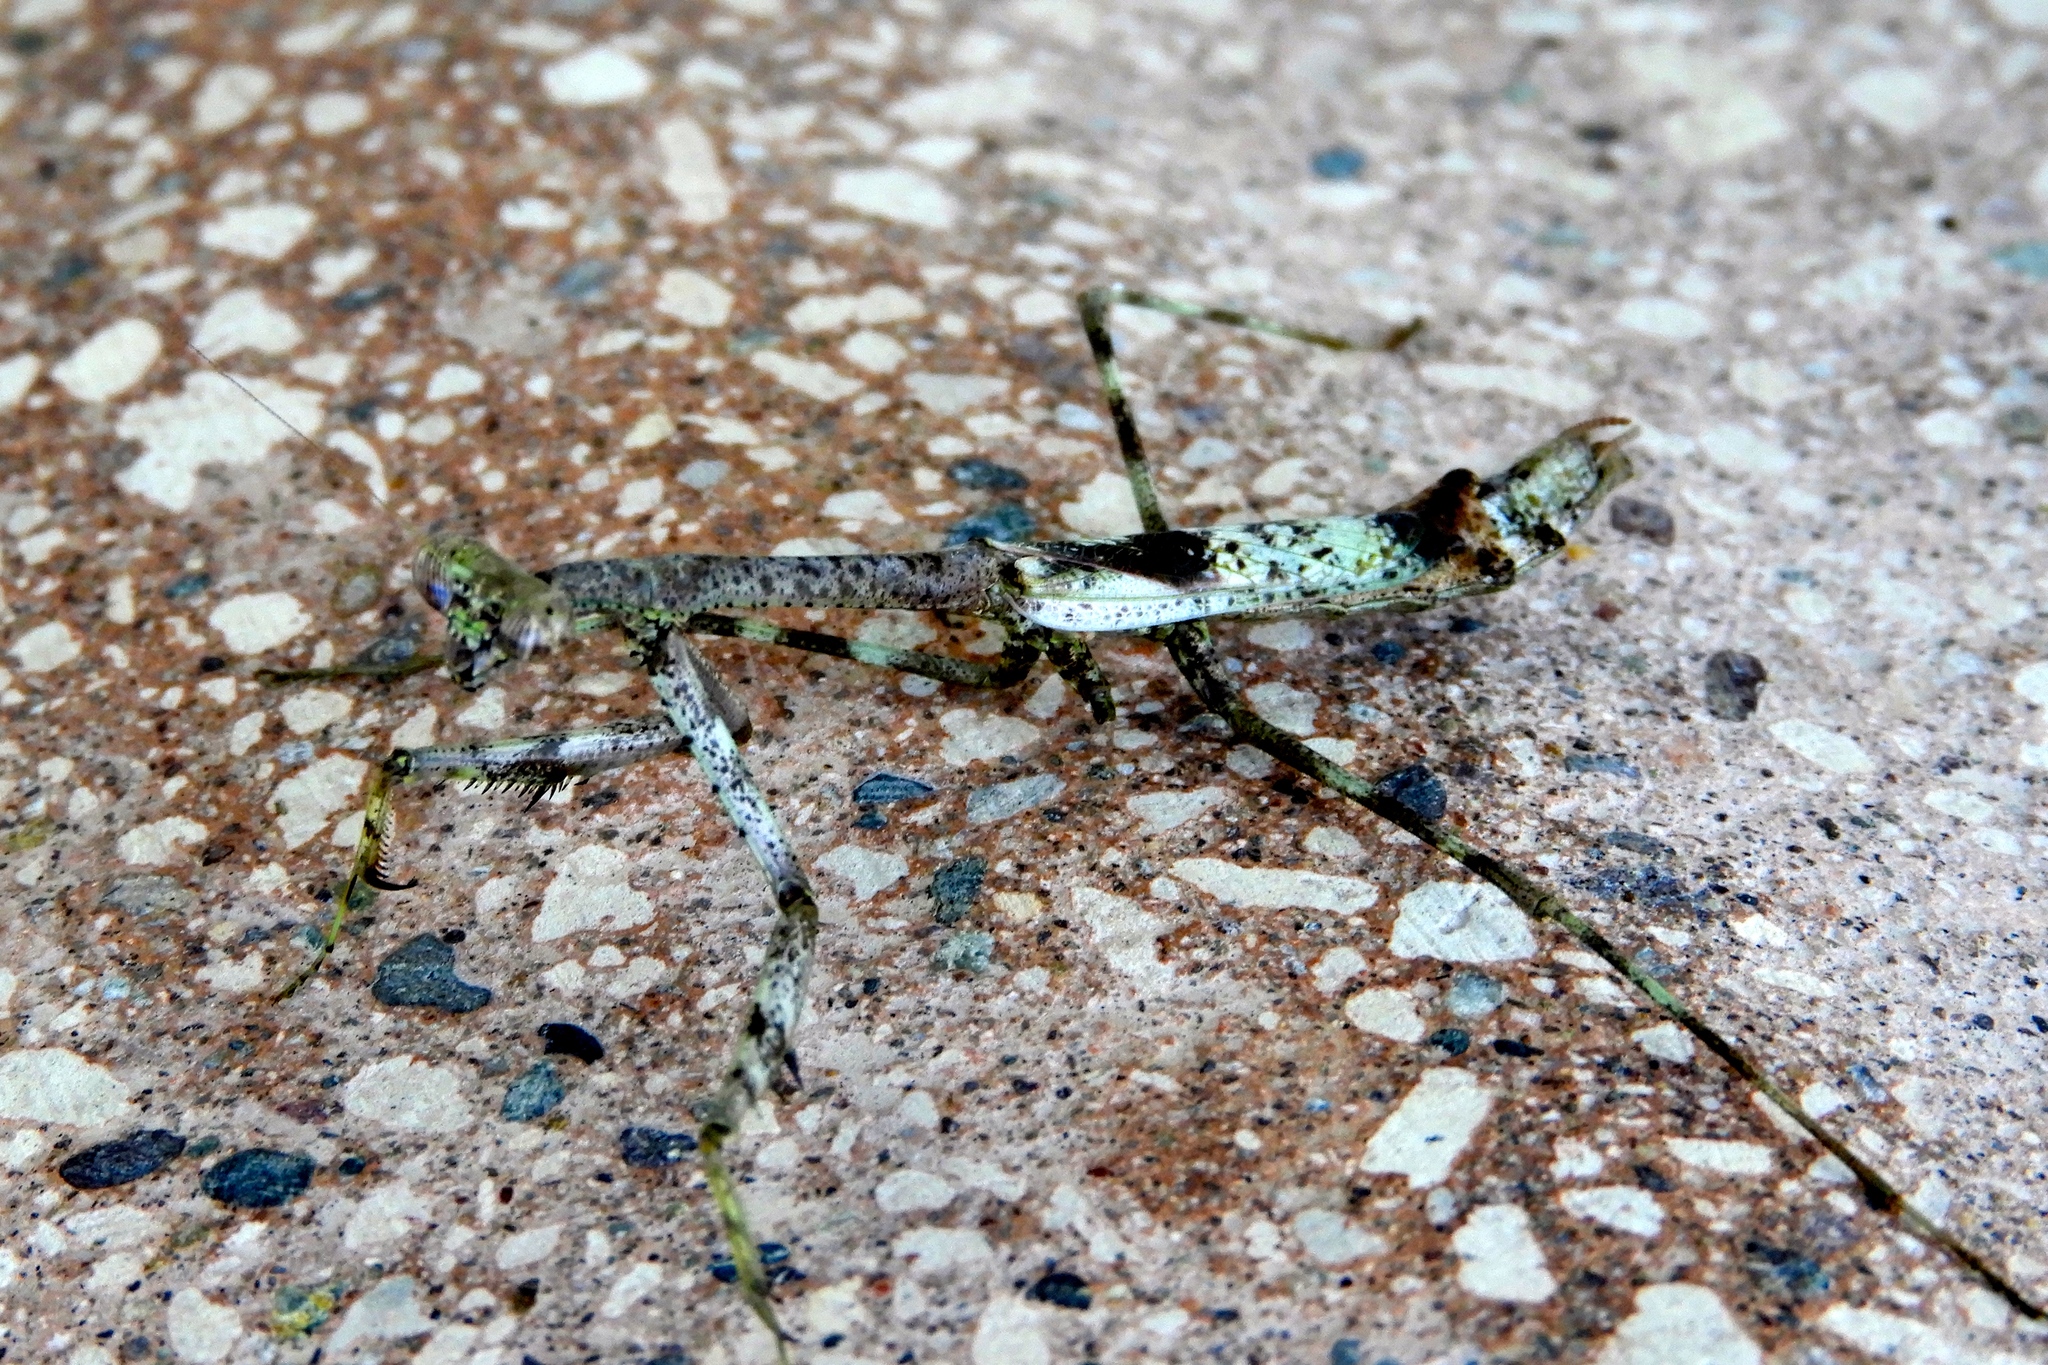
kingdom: Animalia
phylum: Arthropoda
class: Insecta
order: Mantodea
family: Mantidae
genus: Stagmomantis
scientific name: Stagmomantis
